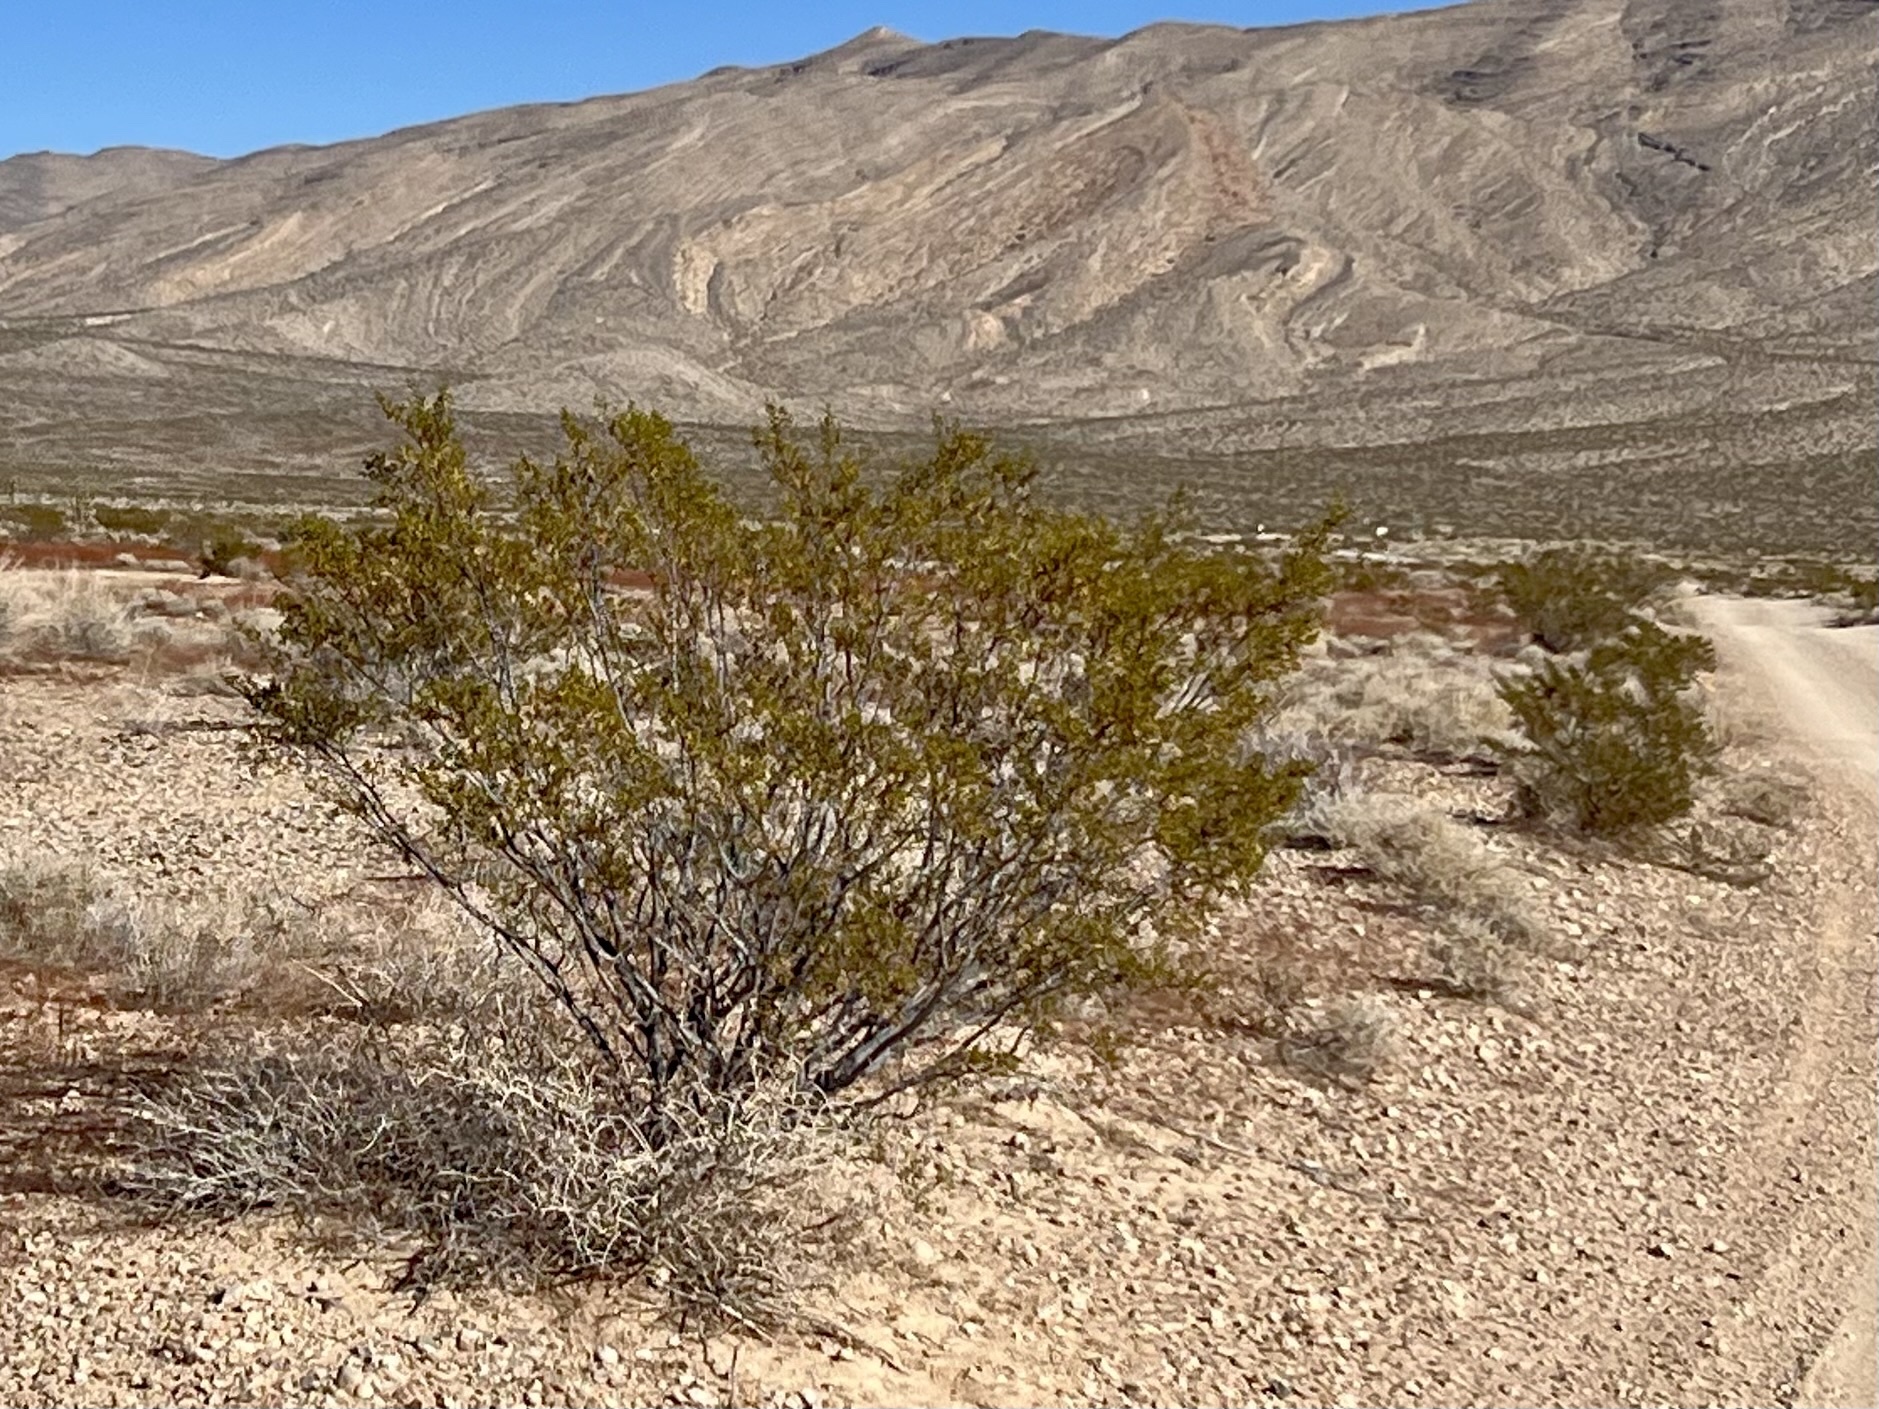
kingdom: Plantae
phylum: Tracheophyta
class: Magnoliopsida
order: Zygophyllales
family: Zygophyllaceae
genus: Larrea
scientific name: Larrea tridentata
